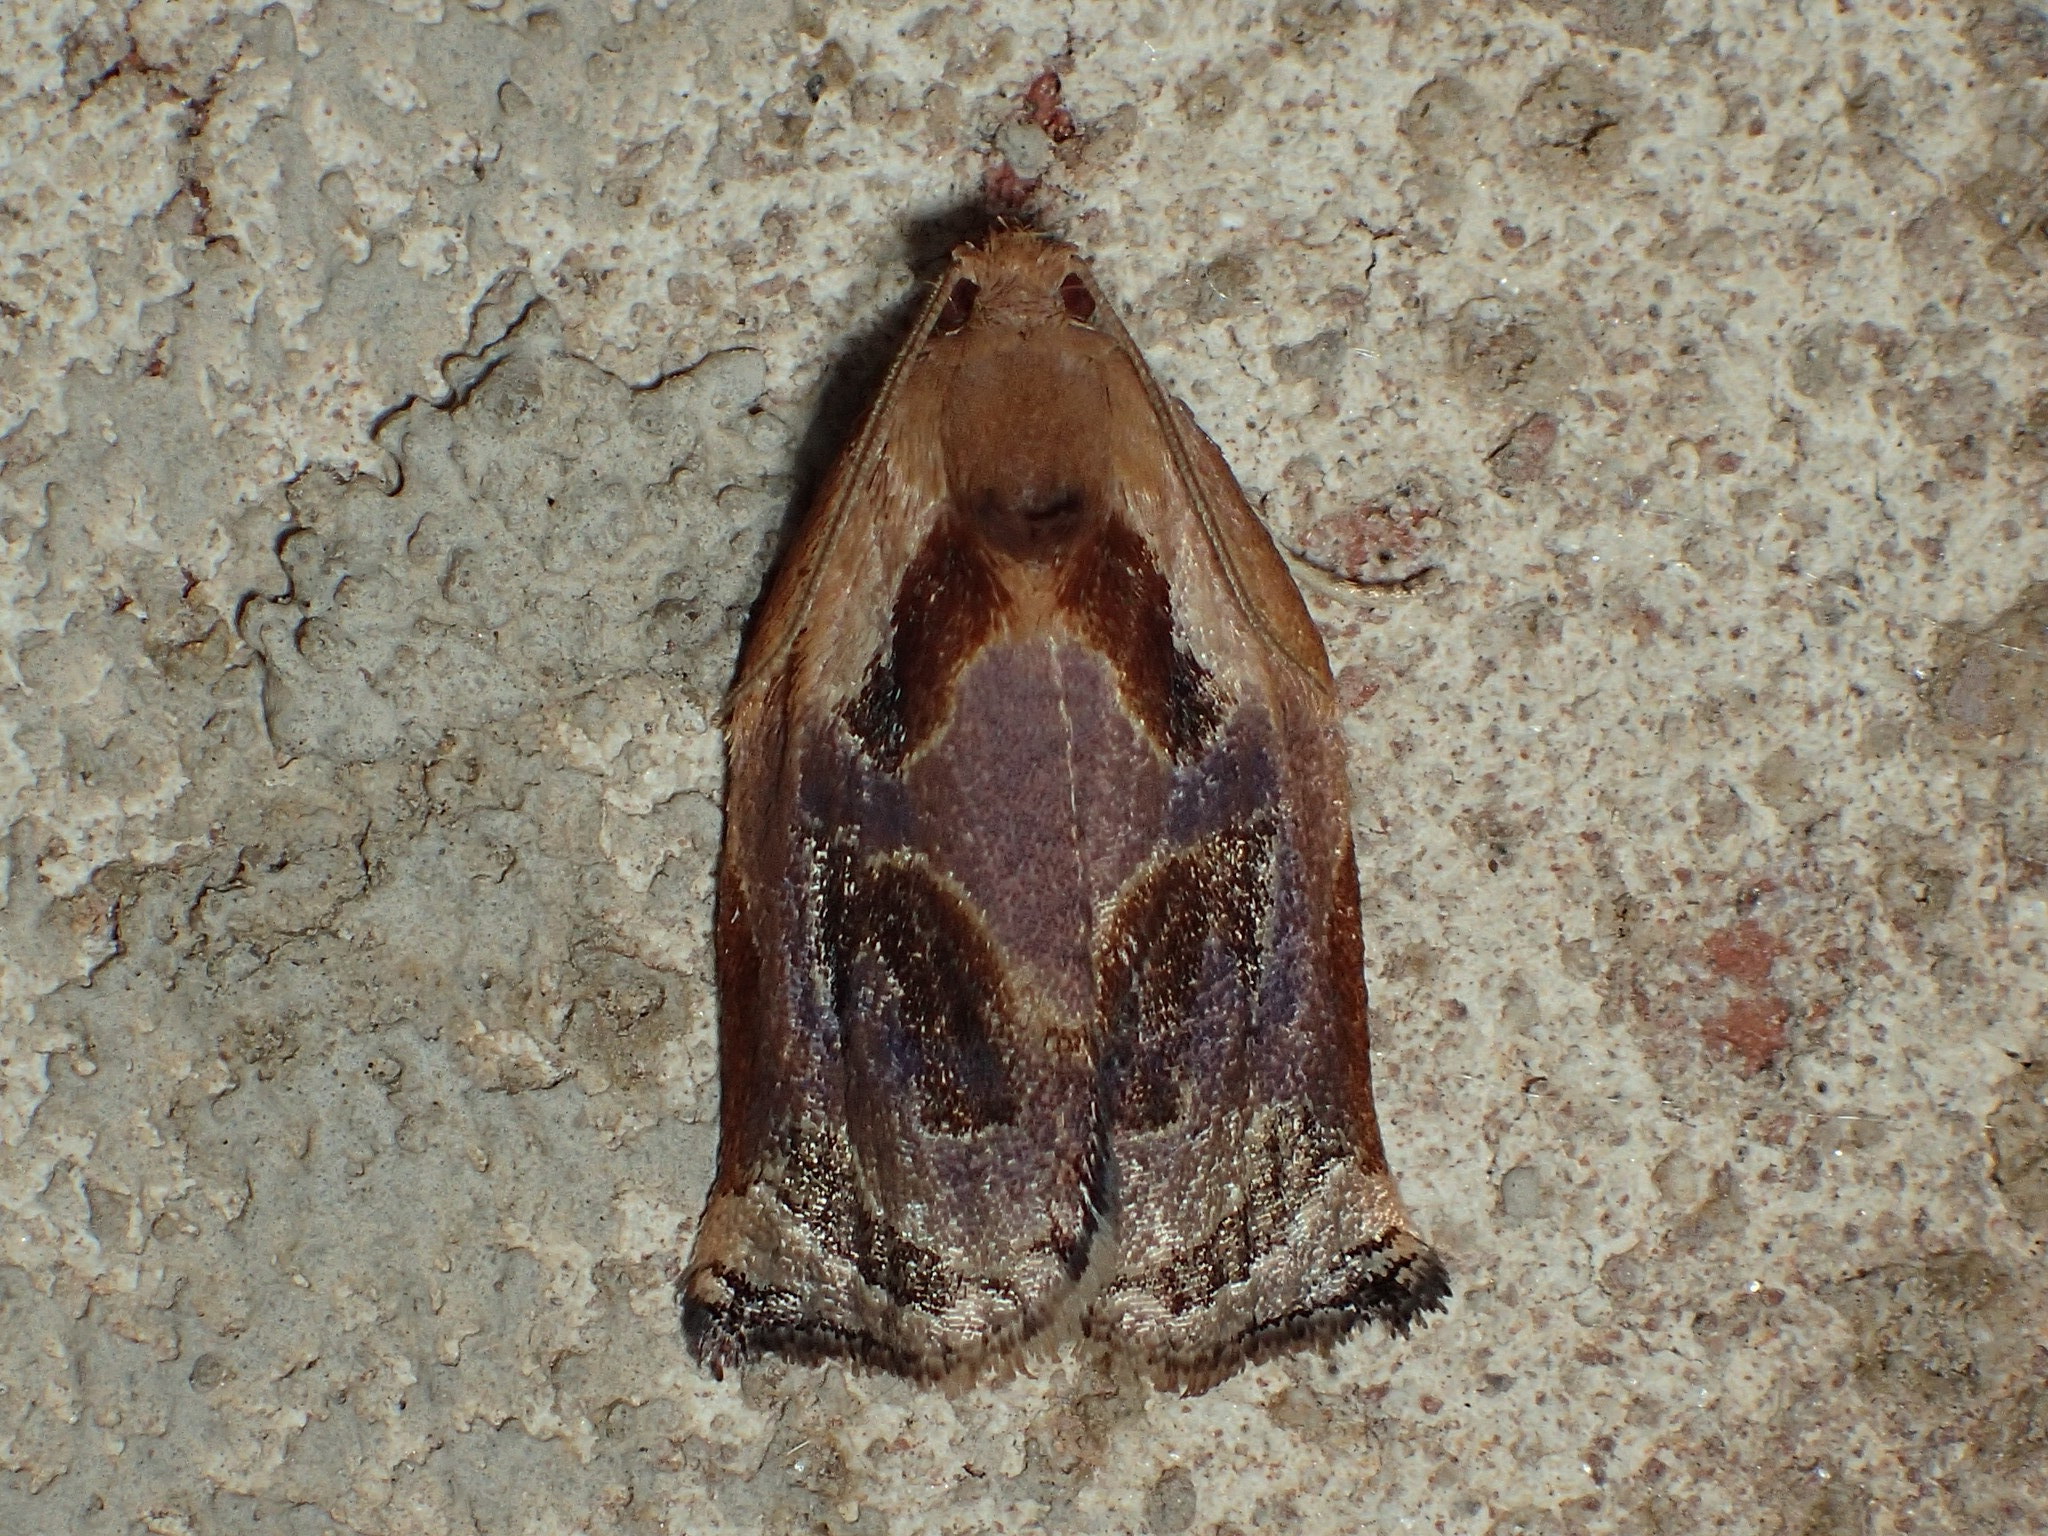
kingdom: Animalia
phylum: Arthropoda
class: Insecta
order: Lepidoptera
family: Tortricidae
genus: Archips
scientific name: Archips grisea
